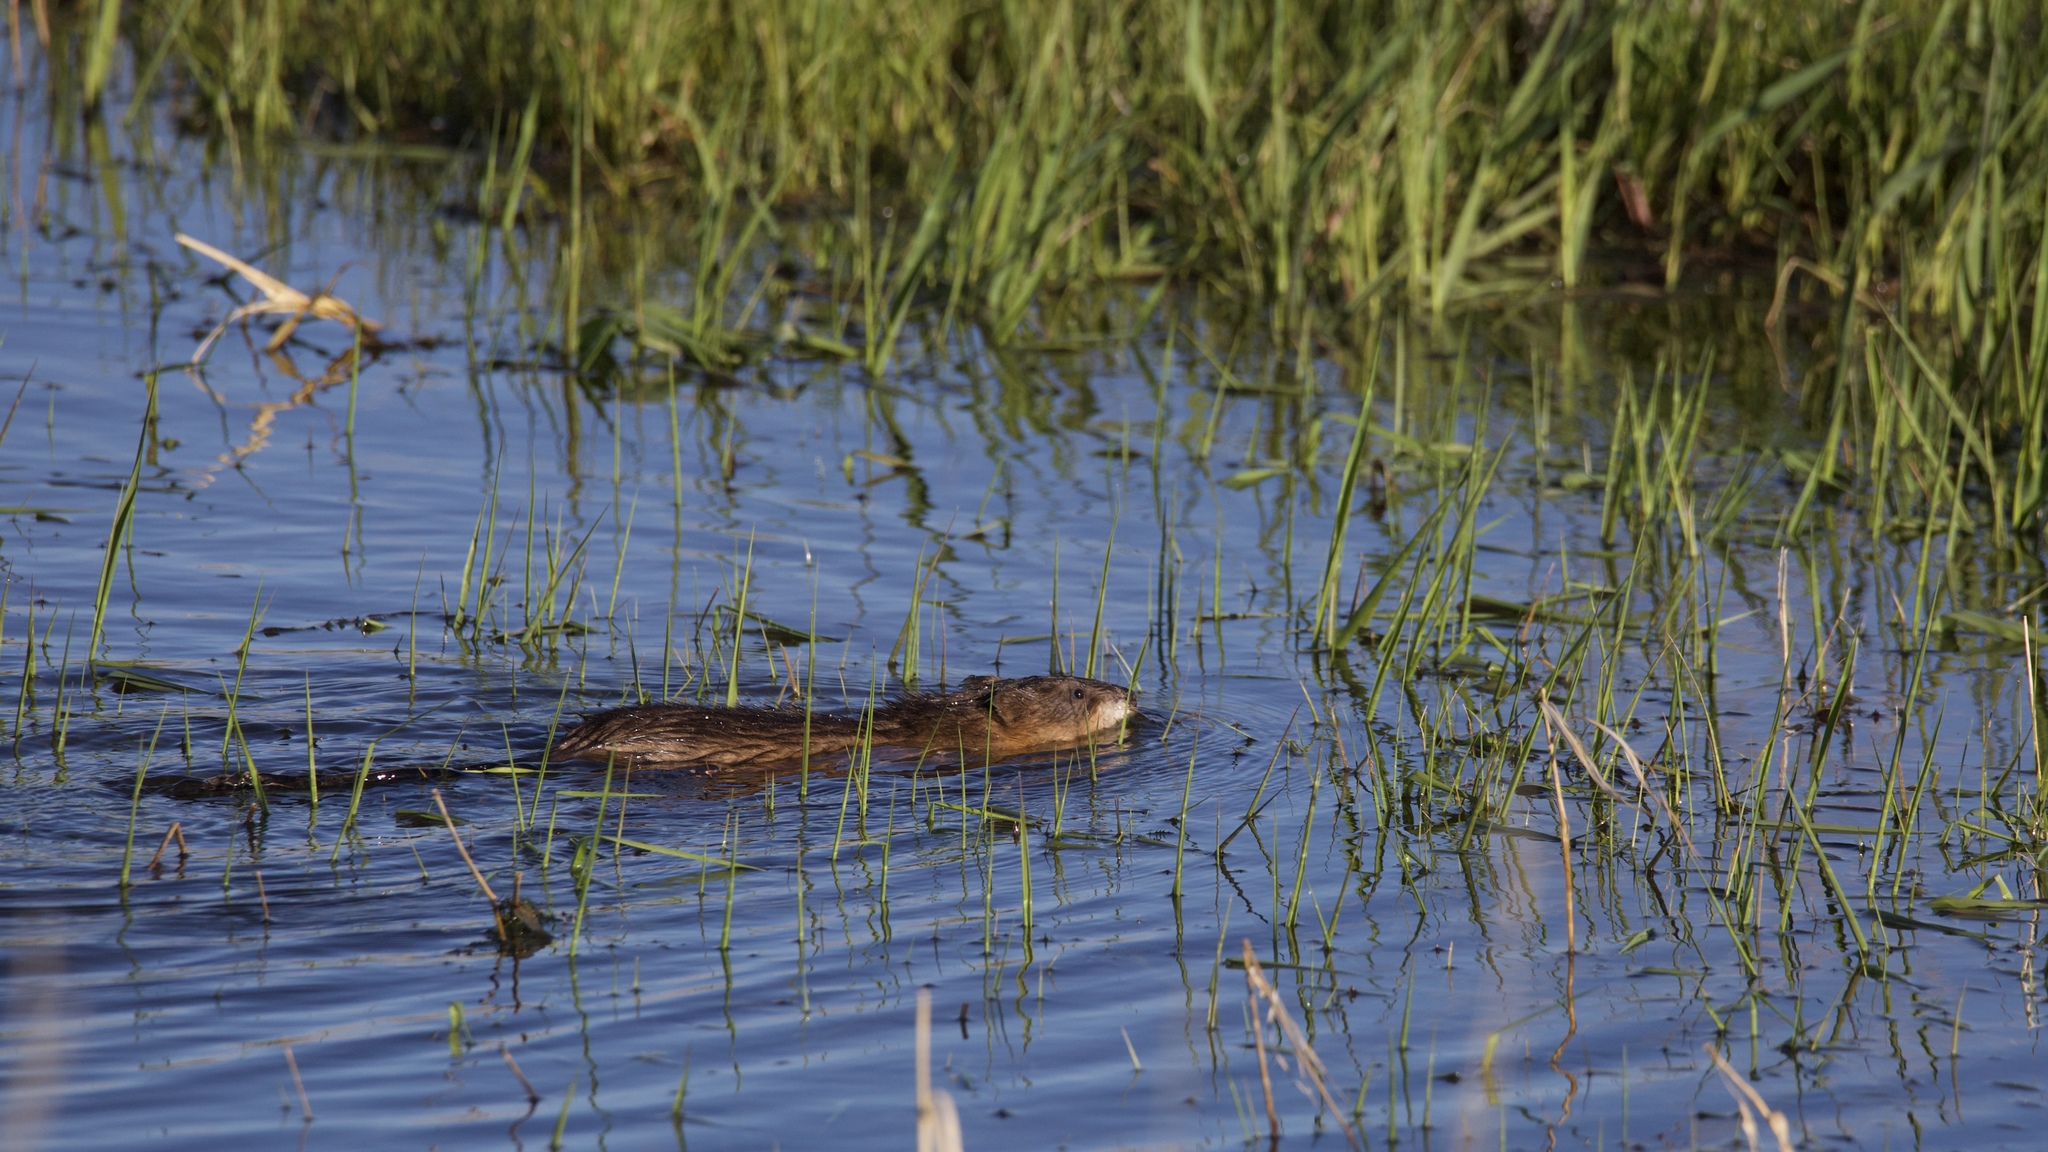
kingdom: Animalia
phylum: Chordata
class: Mammalia
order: Rodentia
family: Cricetidae
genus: Ondatra
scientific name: Ondatra zibethicus
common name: Muskrat
